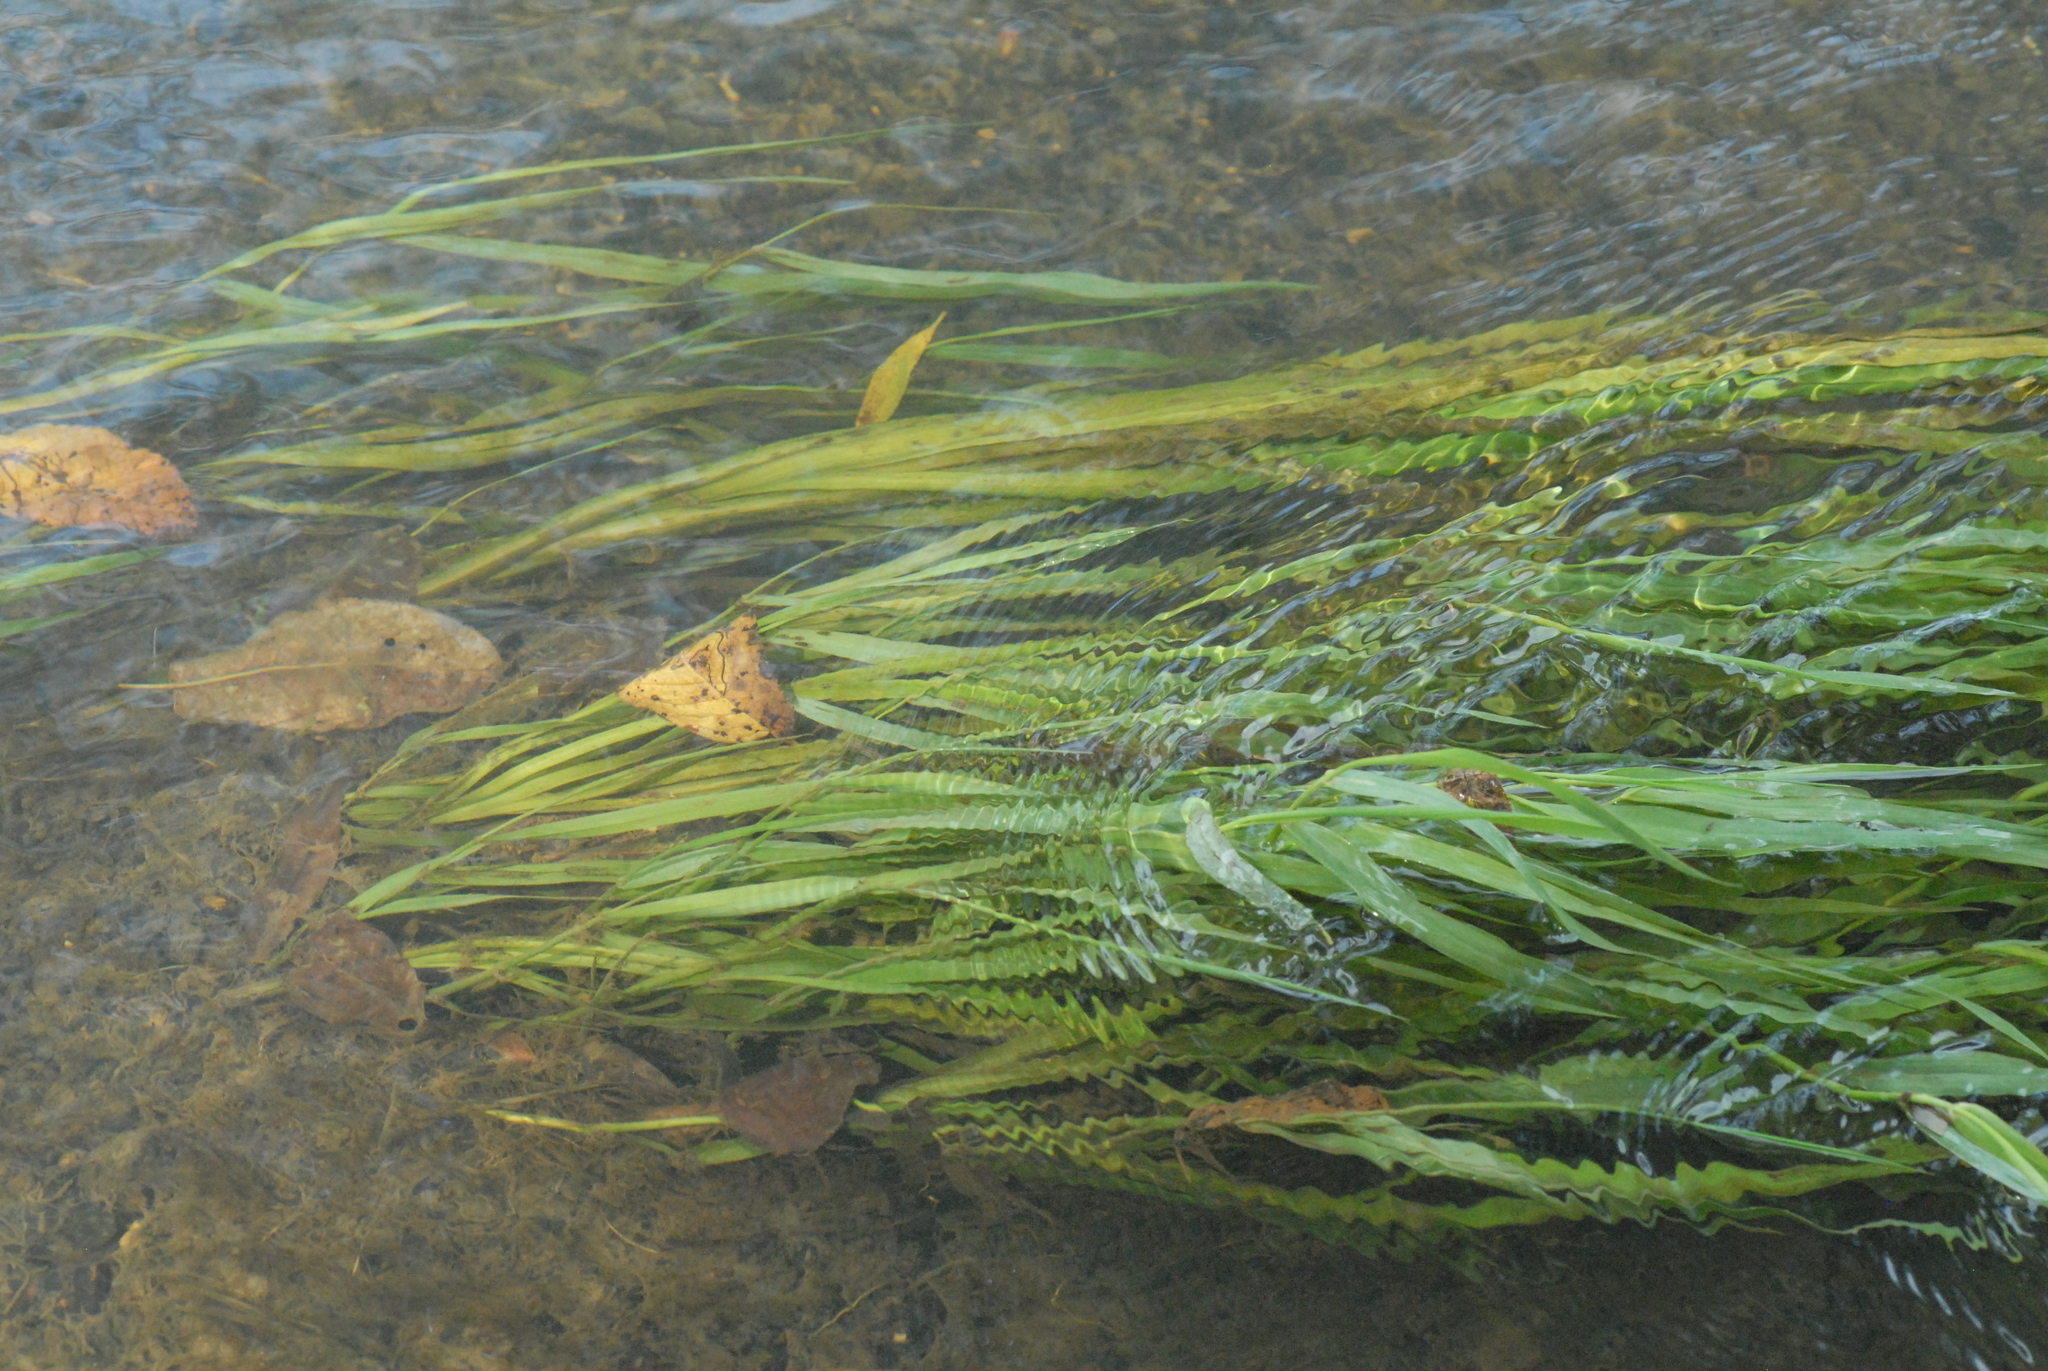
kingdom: Plantae
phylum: Tracheophyta
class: Liliopsida
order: Poales
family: Poaceae
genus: Phragmites
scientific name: Phragmites australis
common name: Common reed
